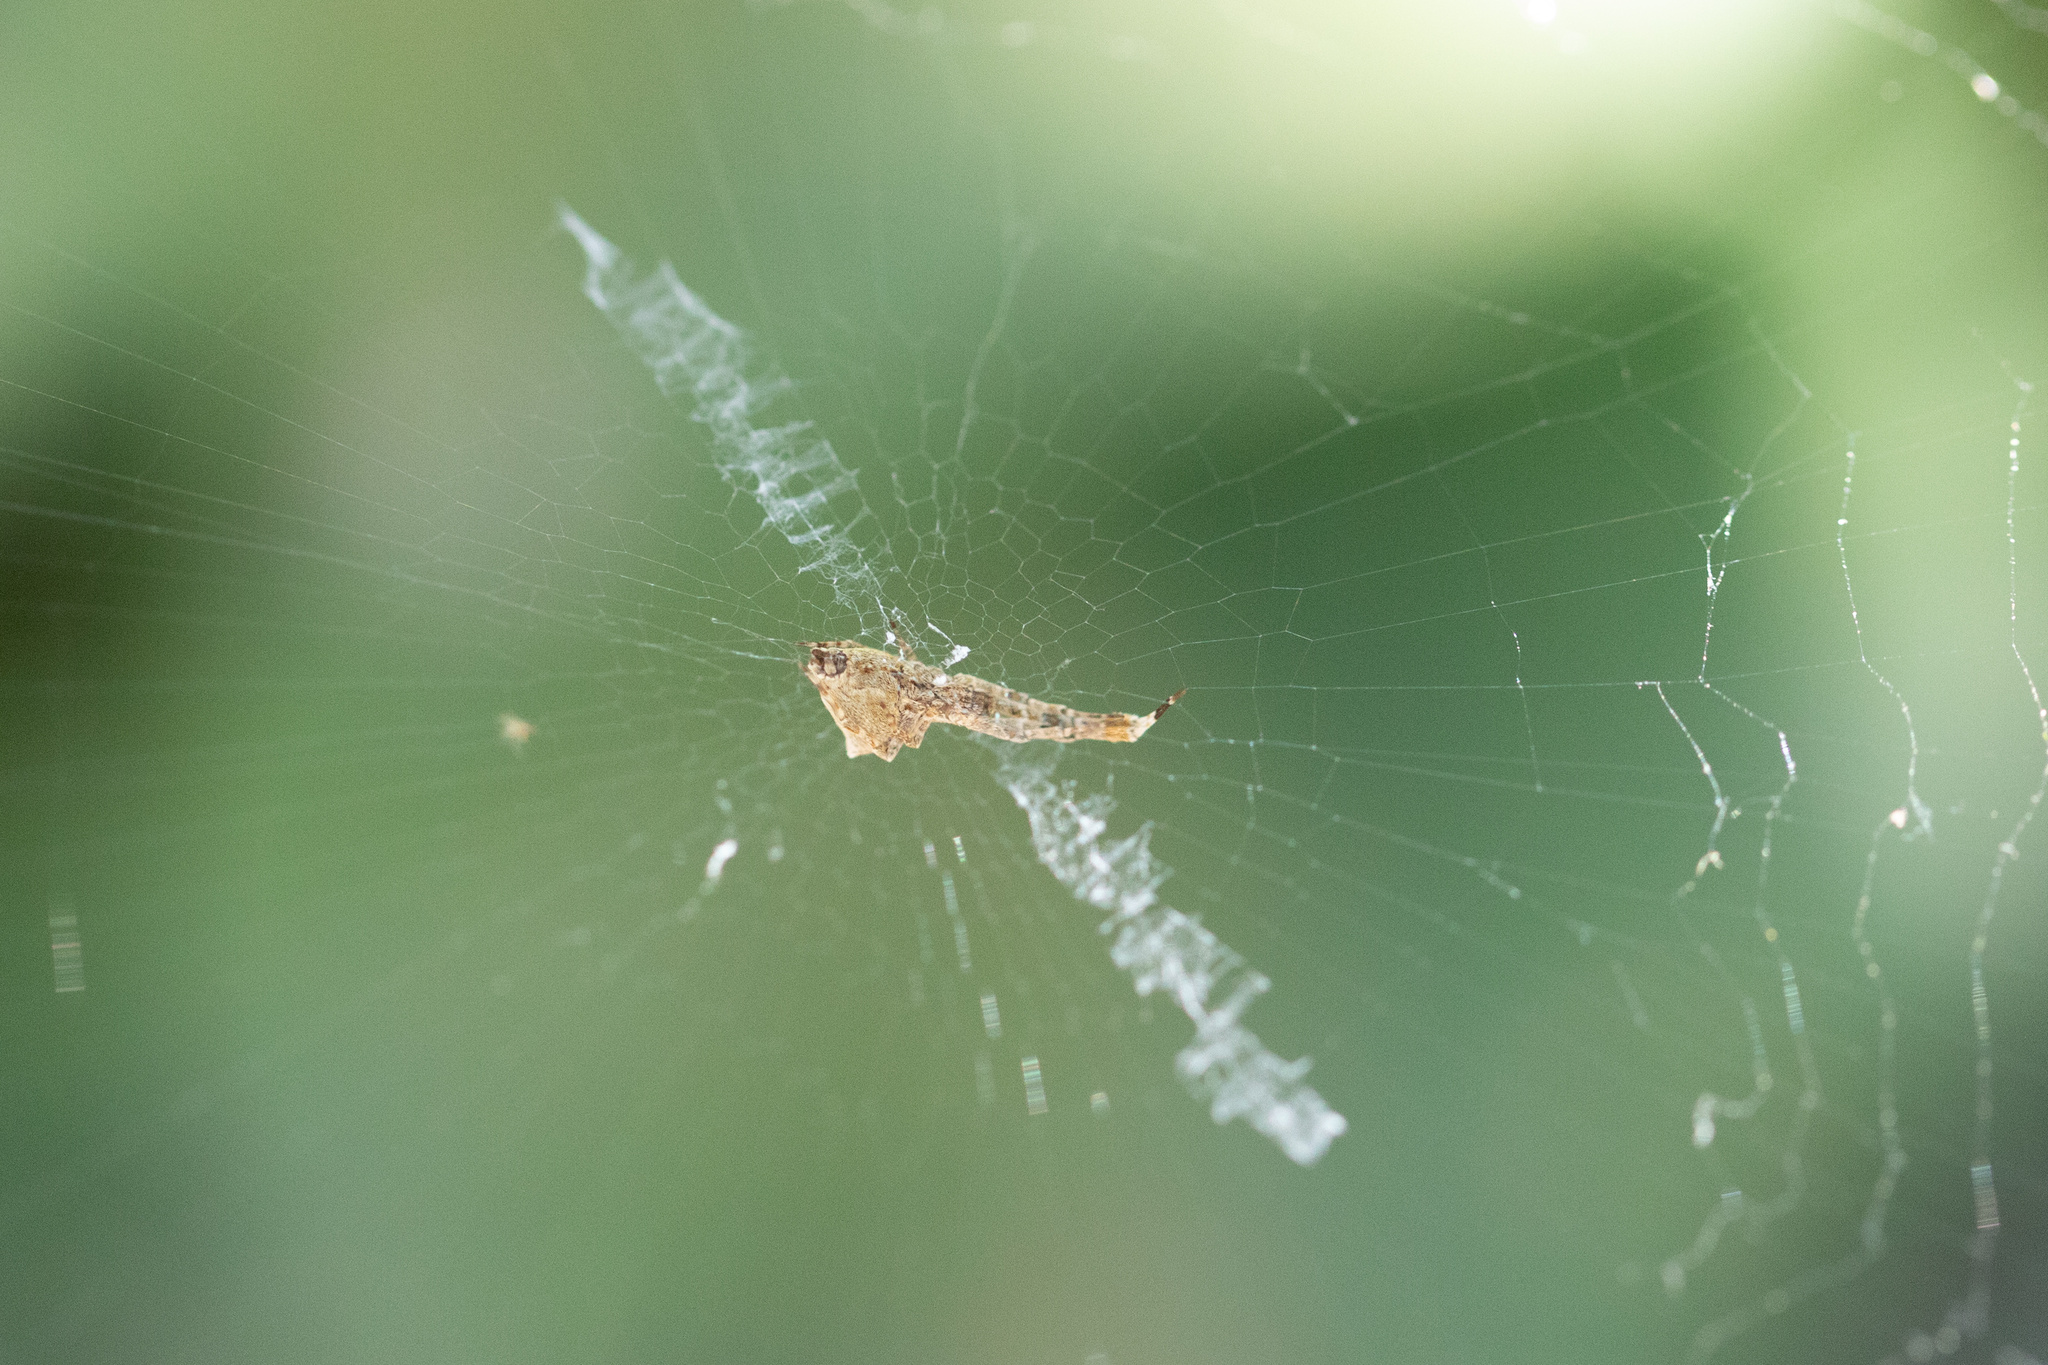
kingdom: Animalia
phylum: Arthropoda
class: Arachnida
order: Araneae
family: Uloboridae
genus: Uloborus
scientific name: Uloborus diversus
